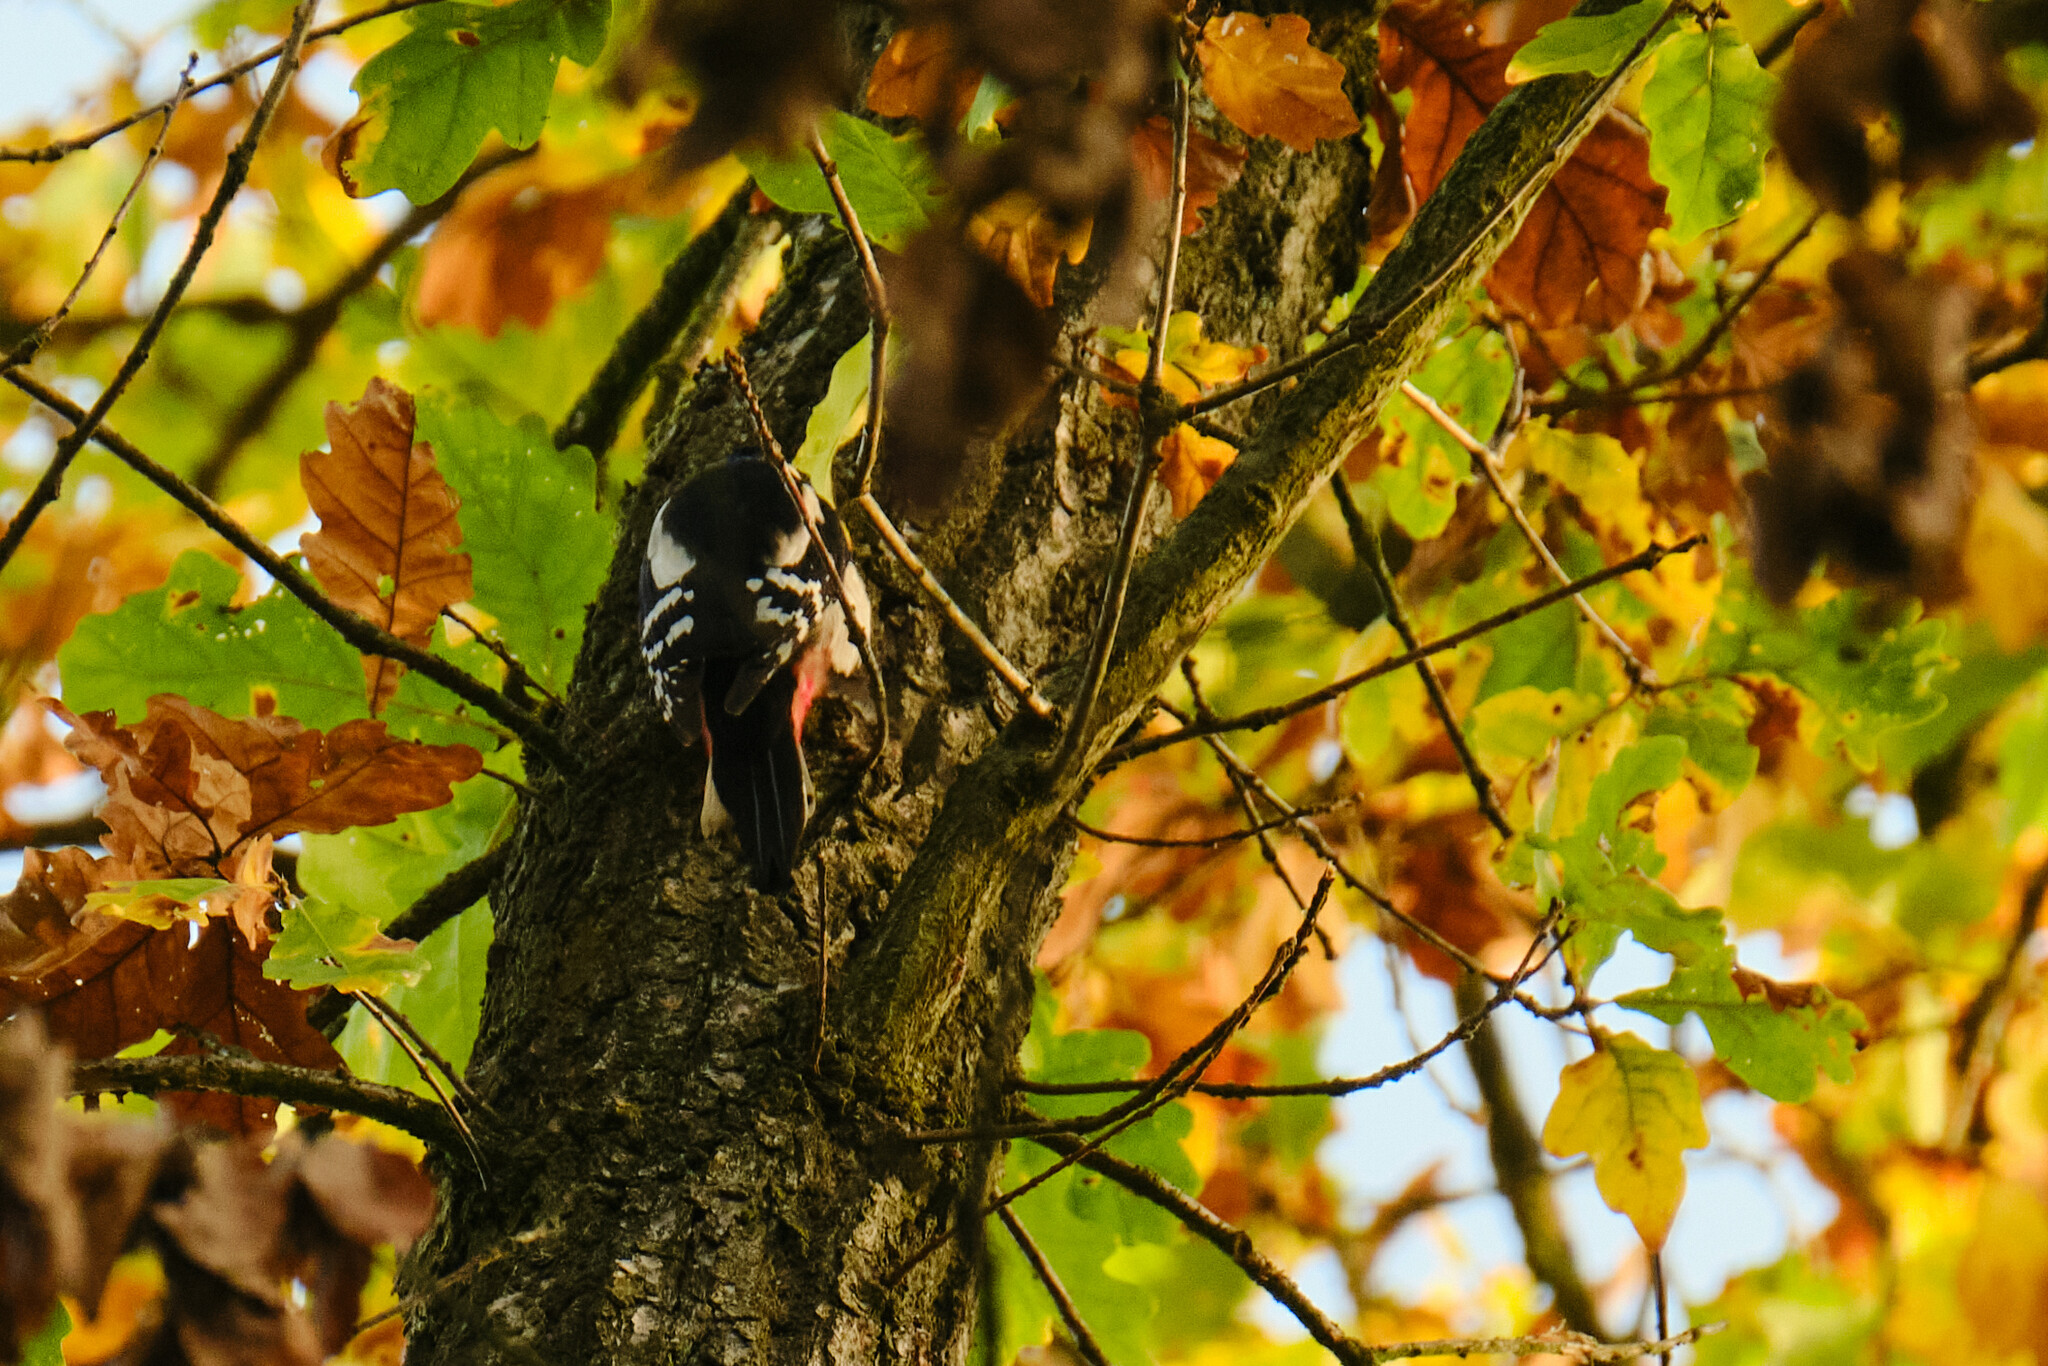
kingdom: Animalia
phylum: Chordata
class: Aves
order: Piciformes
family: Picidae
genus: Dendrocopos
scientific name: Dendrocopos major
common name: Great spotted woodpecker
